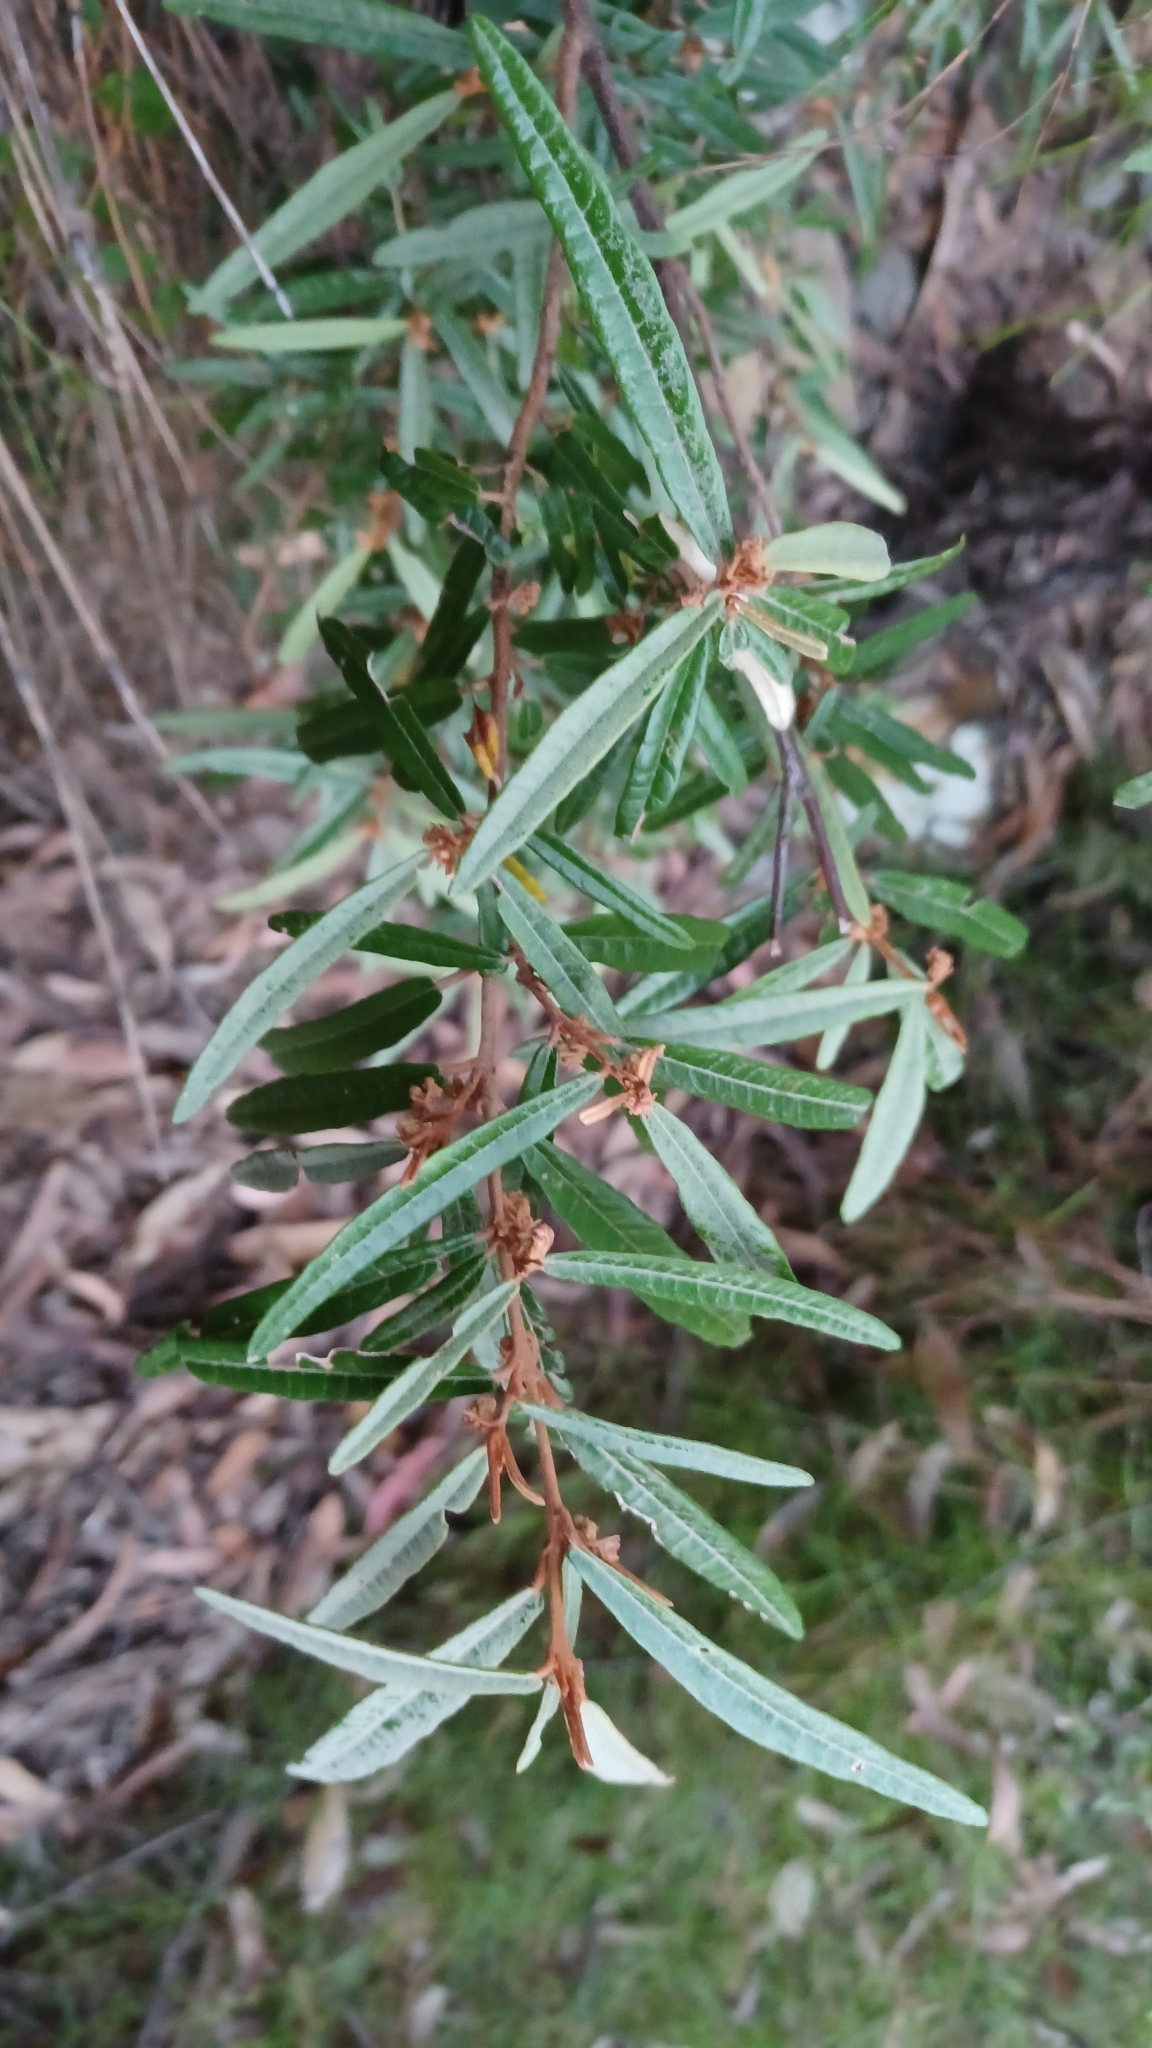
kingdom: Plantae
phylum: Tracheophyta
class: Magnoliopsida
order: Malvales
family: Malvaceae
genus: Lasiopetalum
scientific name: Lasiopetalum ferrugineum
